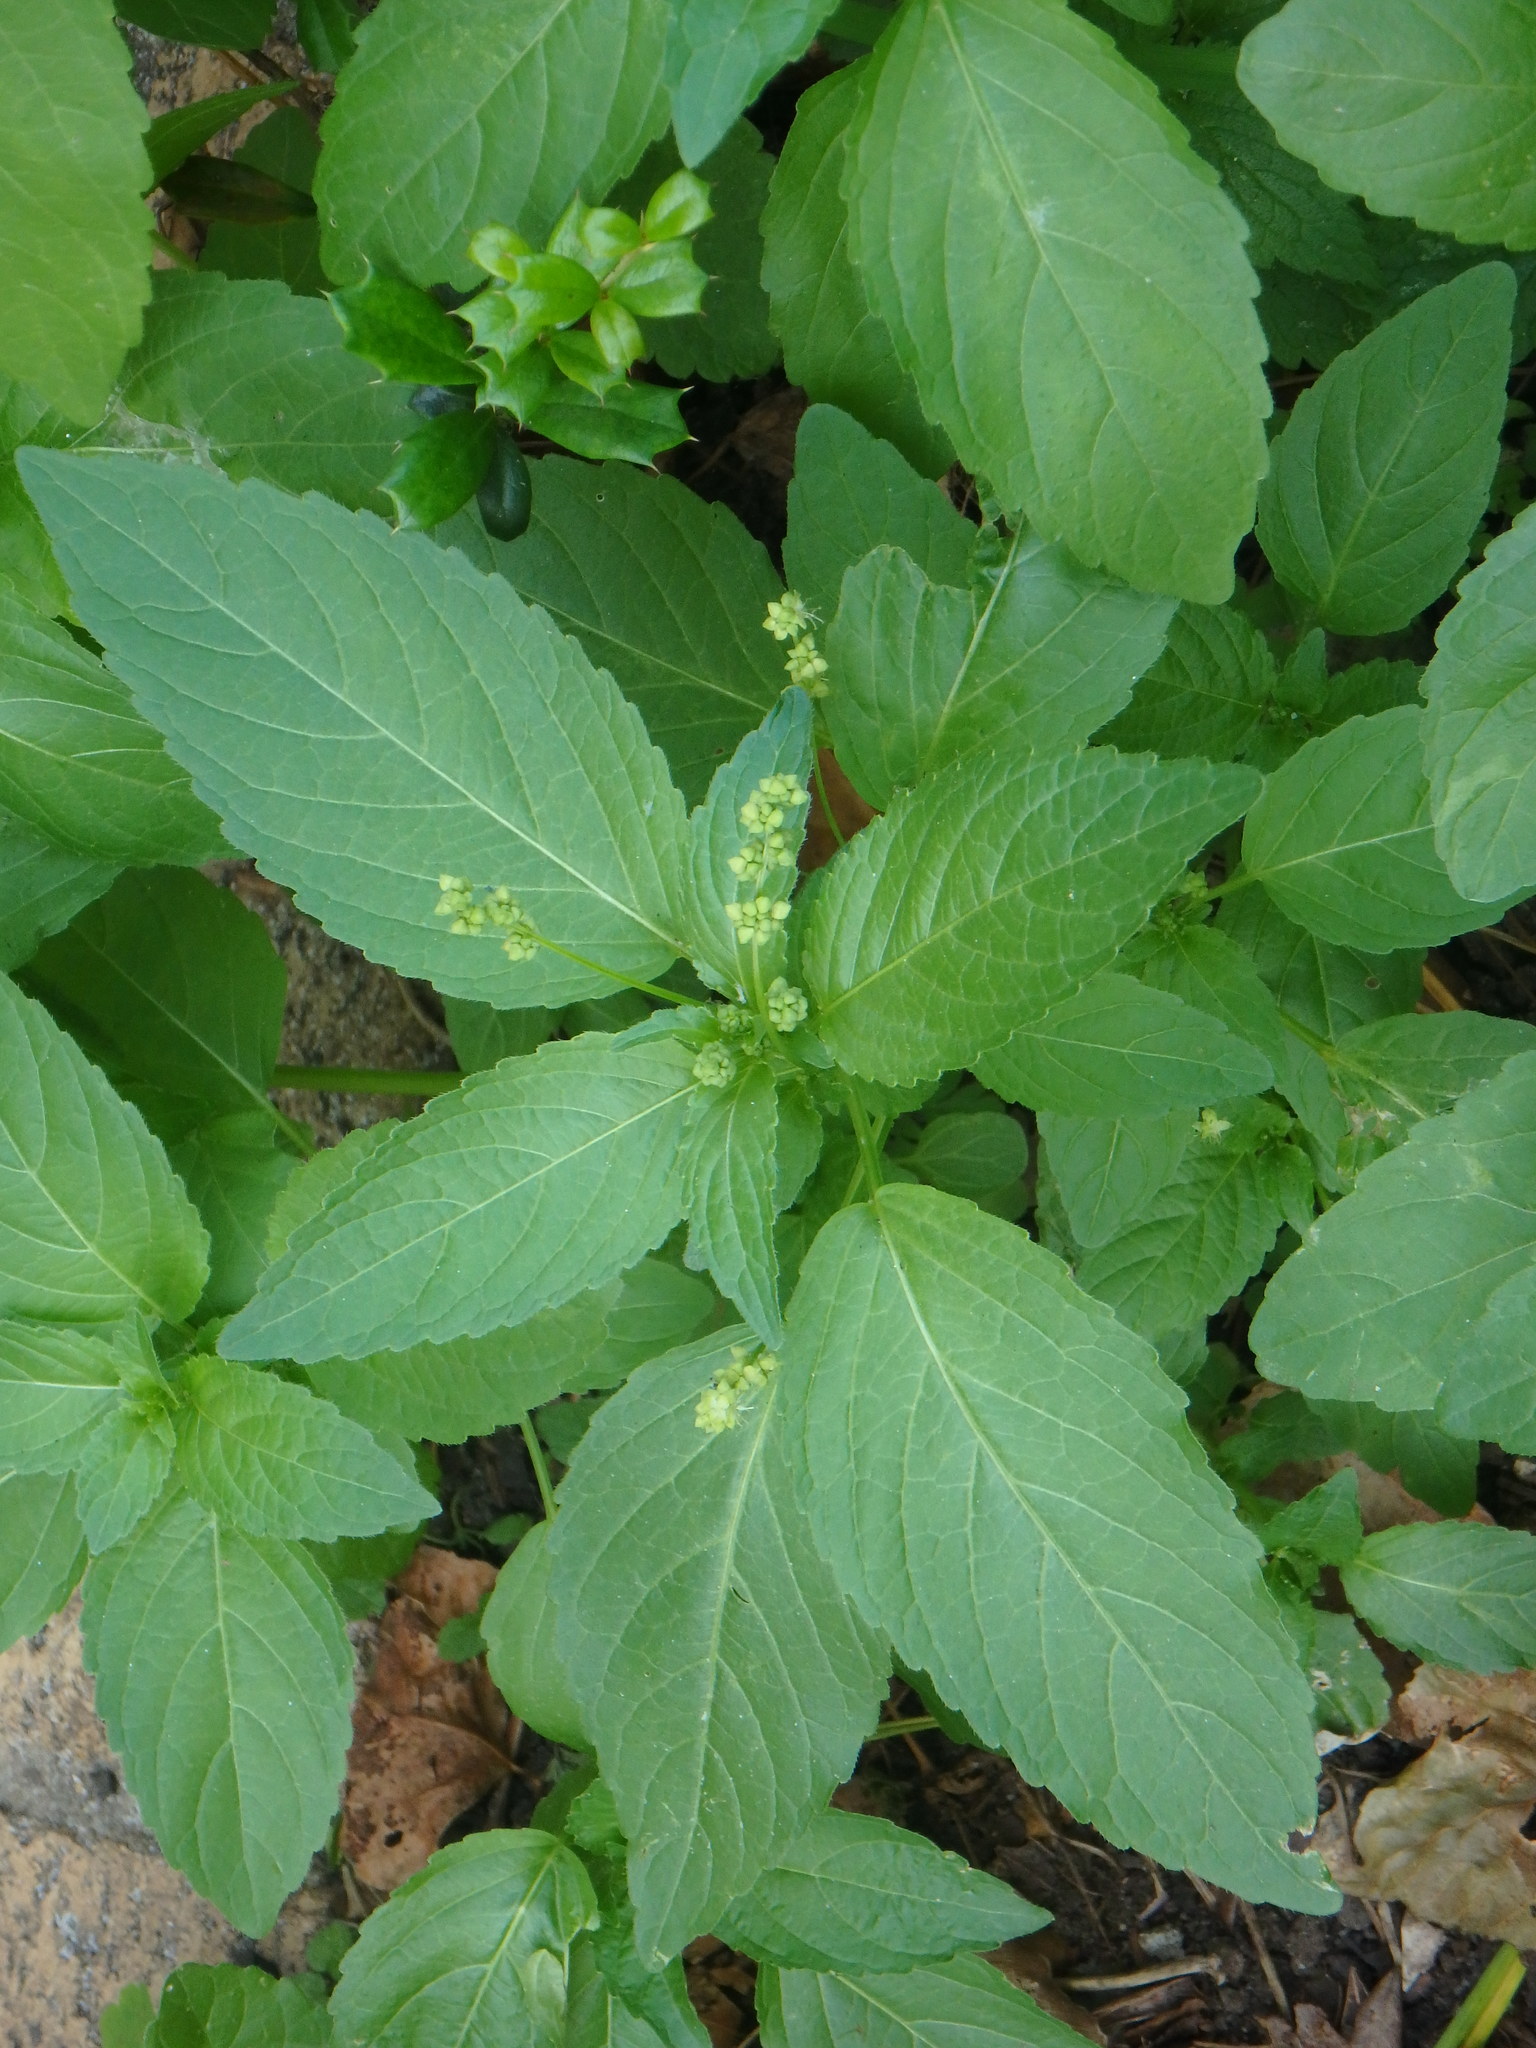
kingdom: Plantae
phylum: Tracheophyta
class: Magnoliopsida
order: Malpighiales
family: Euphorbiaceae
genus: Mercurialis
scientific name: Mercurialis annua
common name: Annual mercury
